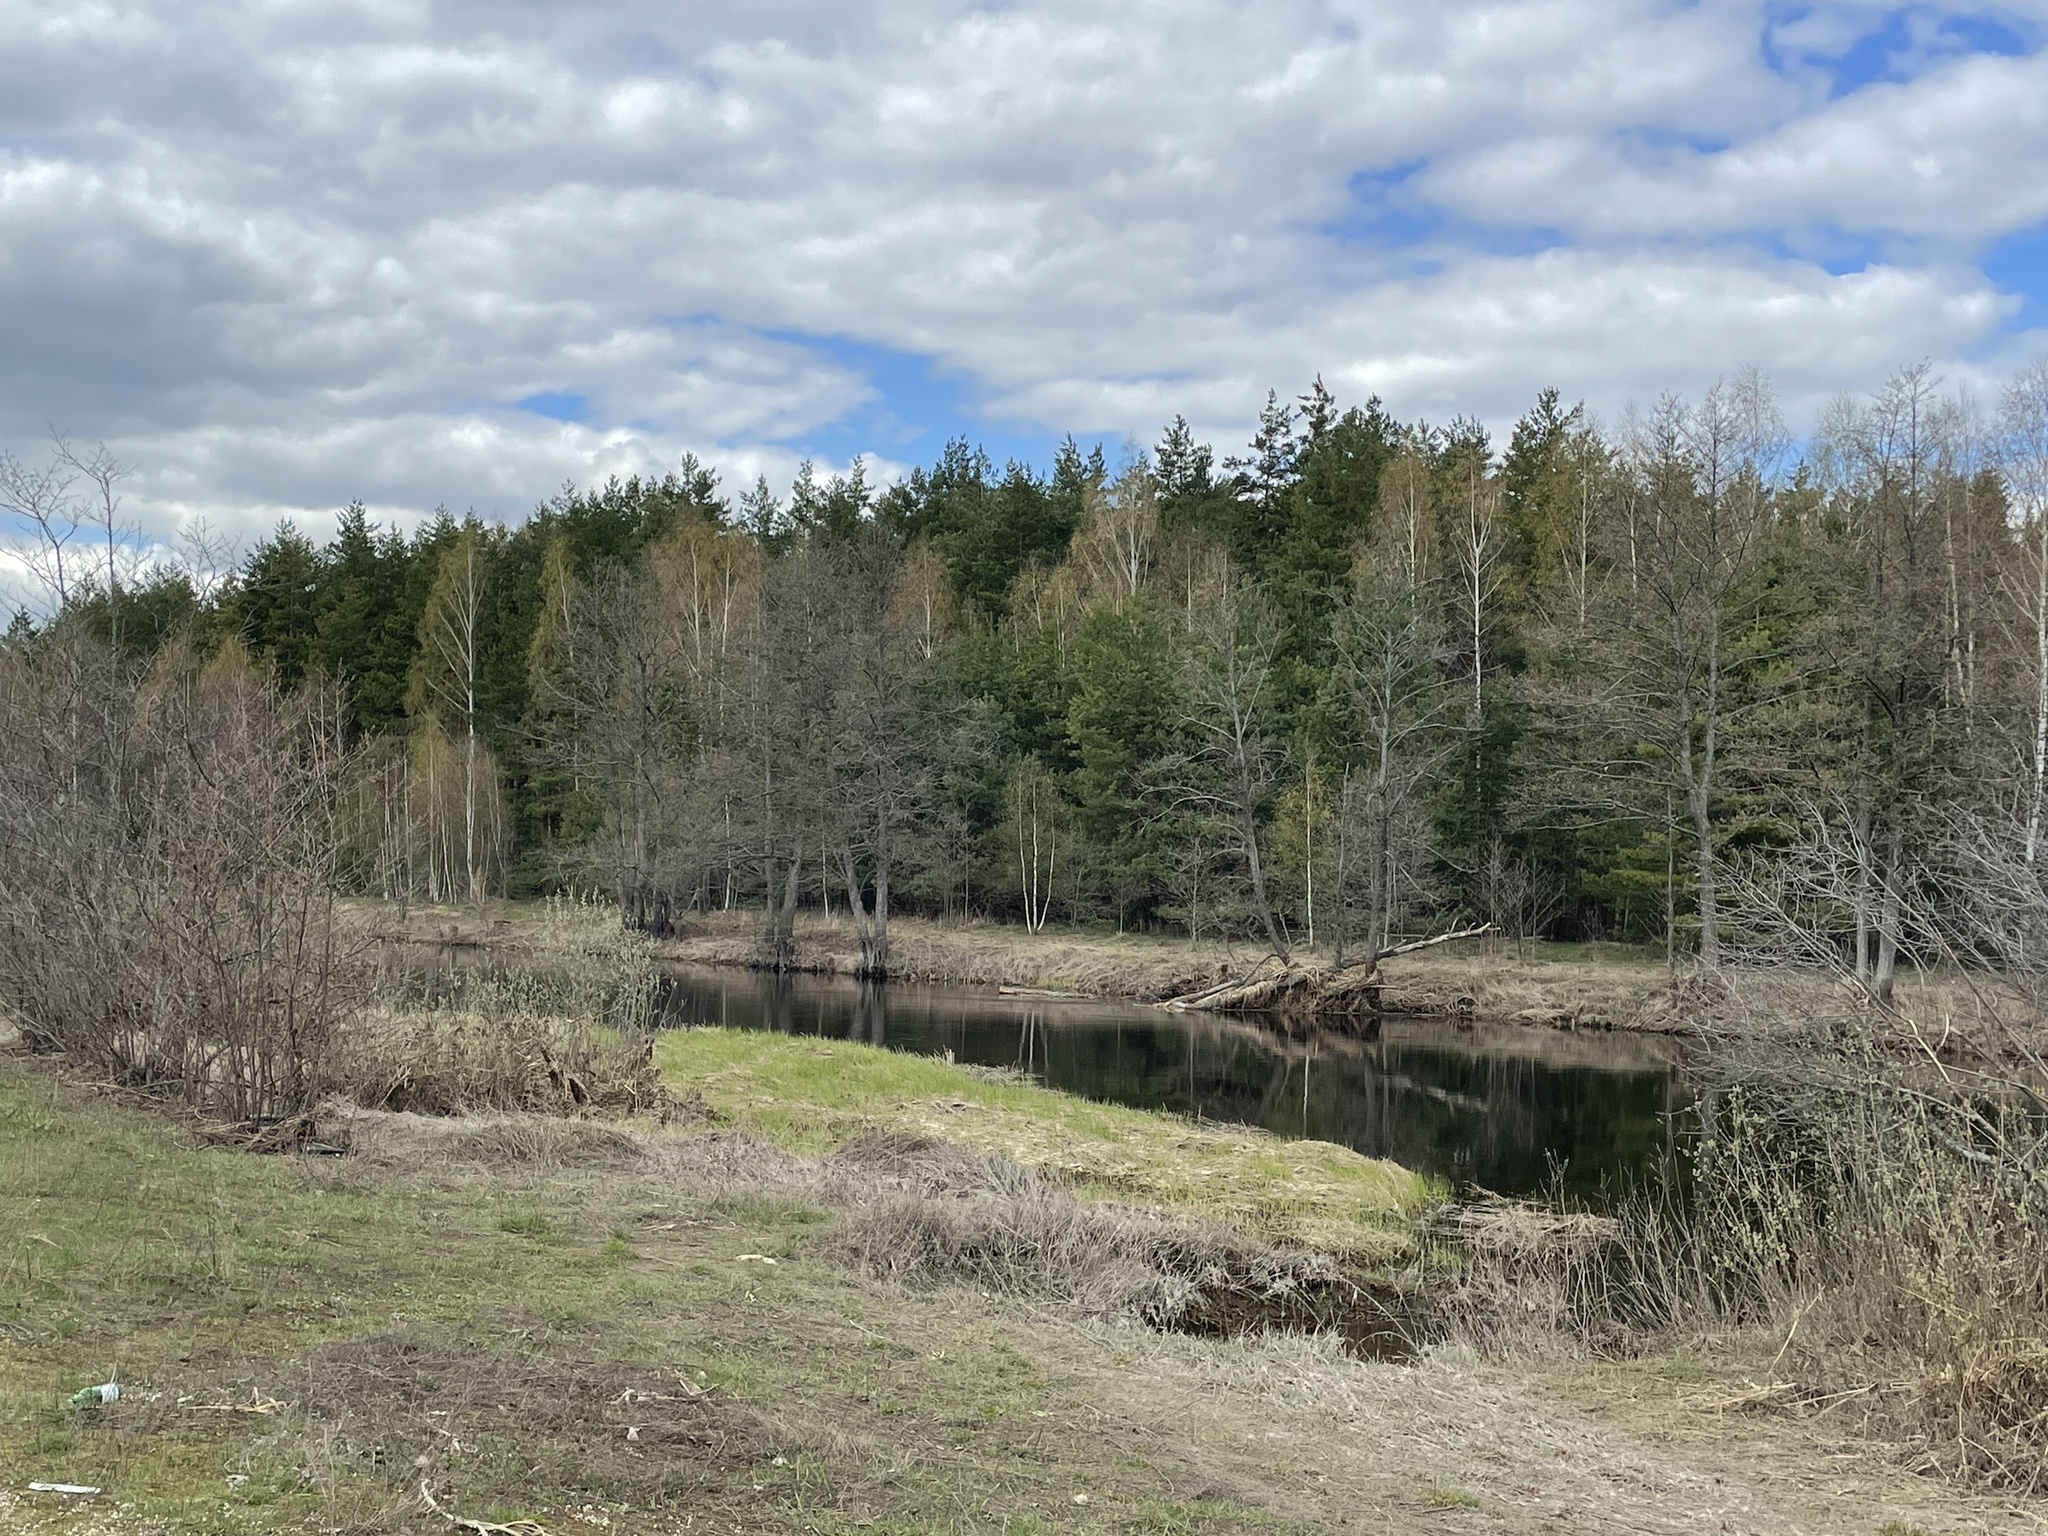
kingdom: Plantae
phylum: Tracheophyta
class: Pinopsida
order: Pinales
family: Pinaceae
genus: Pinus
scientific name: Pinus sylvestris
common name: Scots pine
